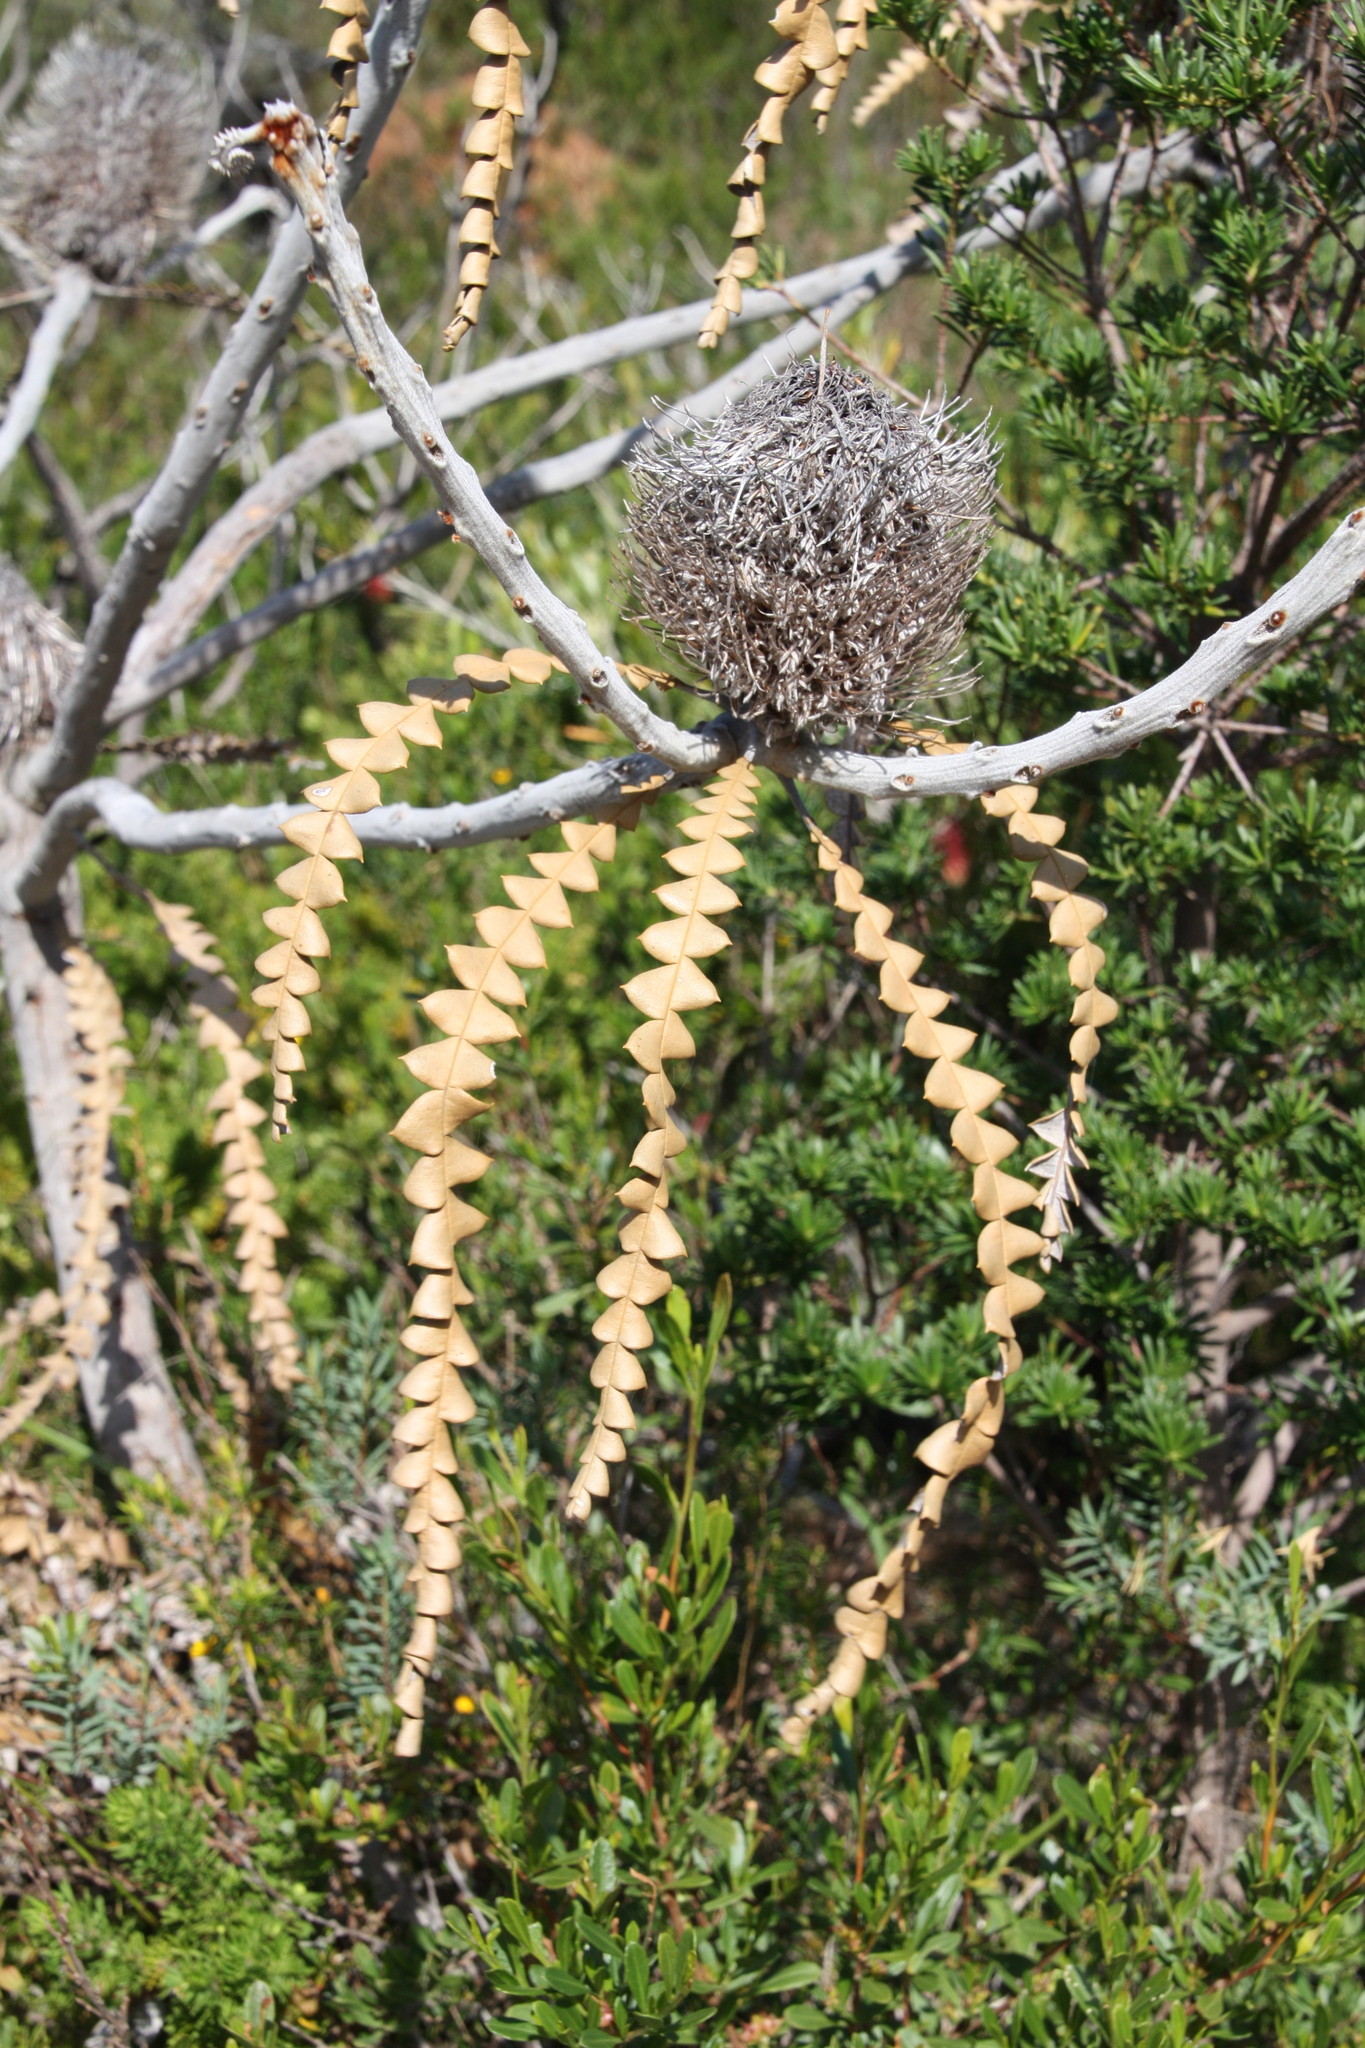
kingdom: Plantae
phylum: Tracheophyta
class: Magnoliopsida
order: Proteales
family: Proteaceae
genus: Banksia
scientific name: Banksia speciosa
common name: Showy banksia
